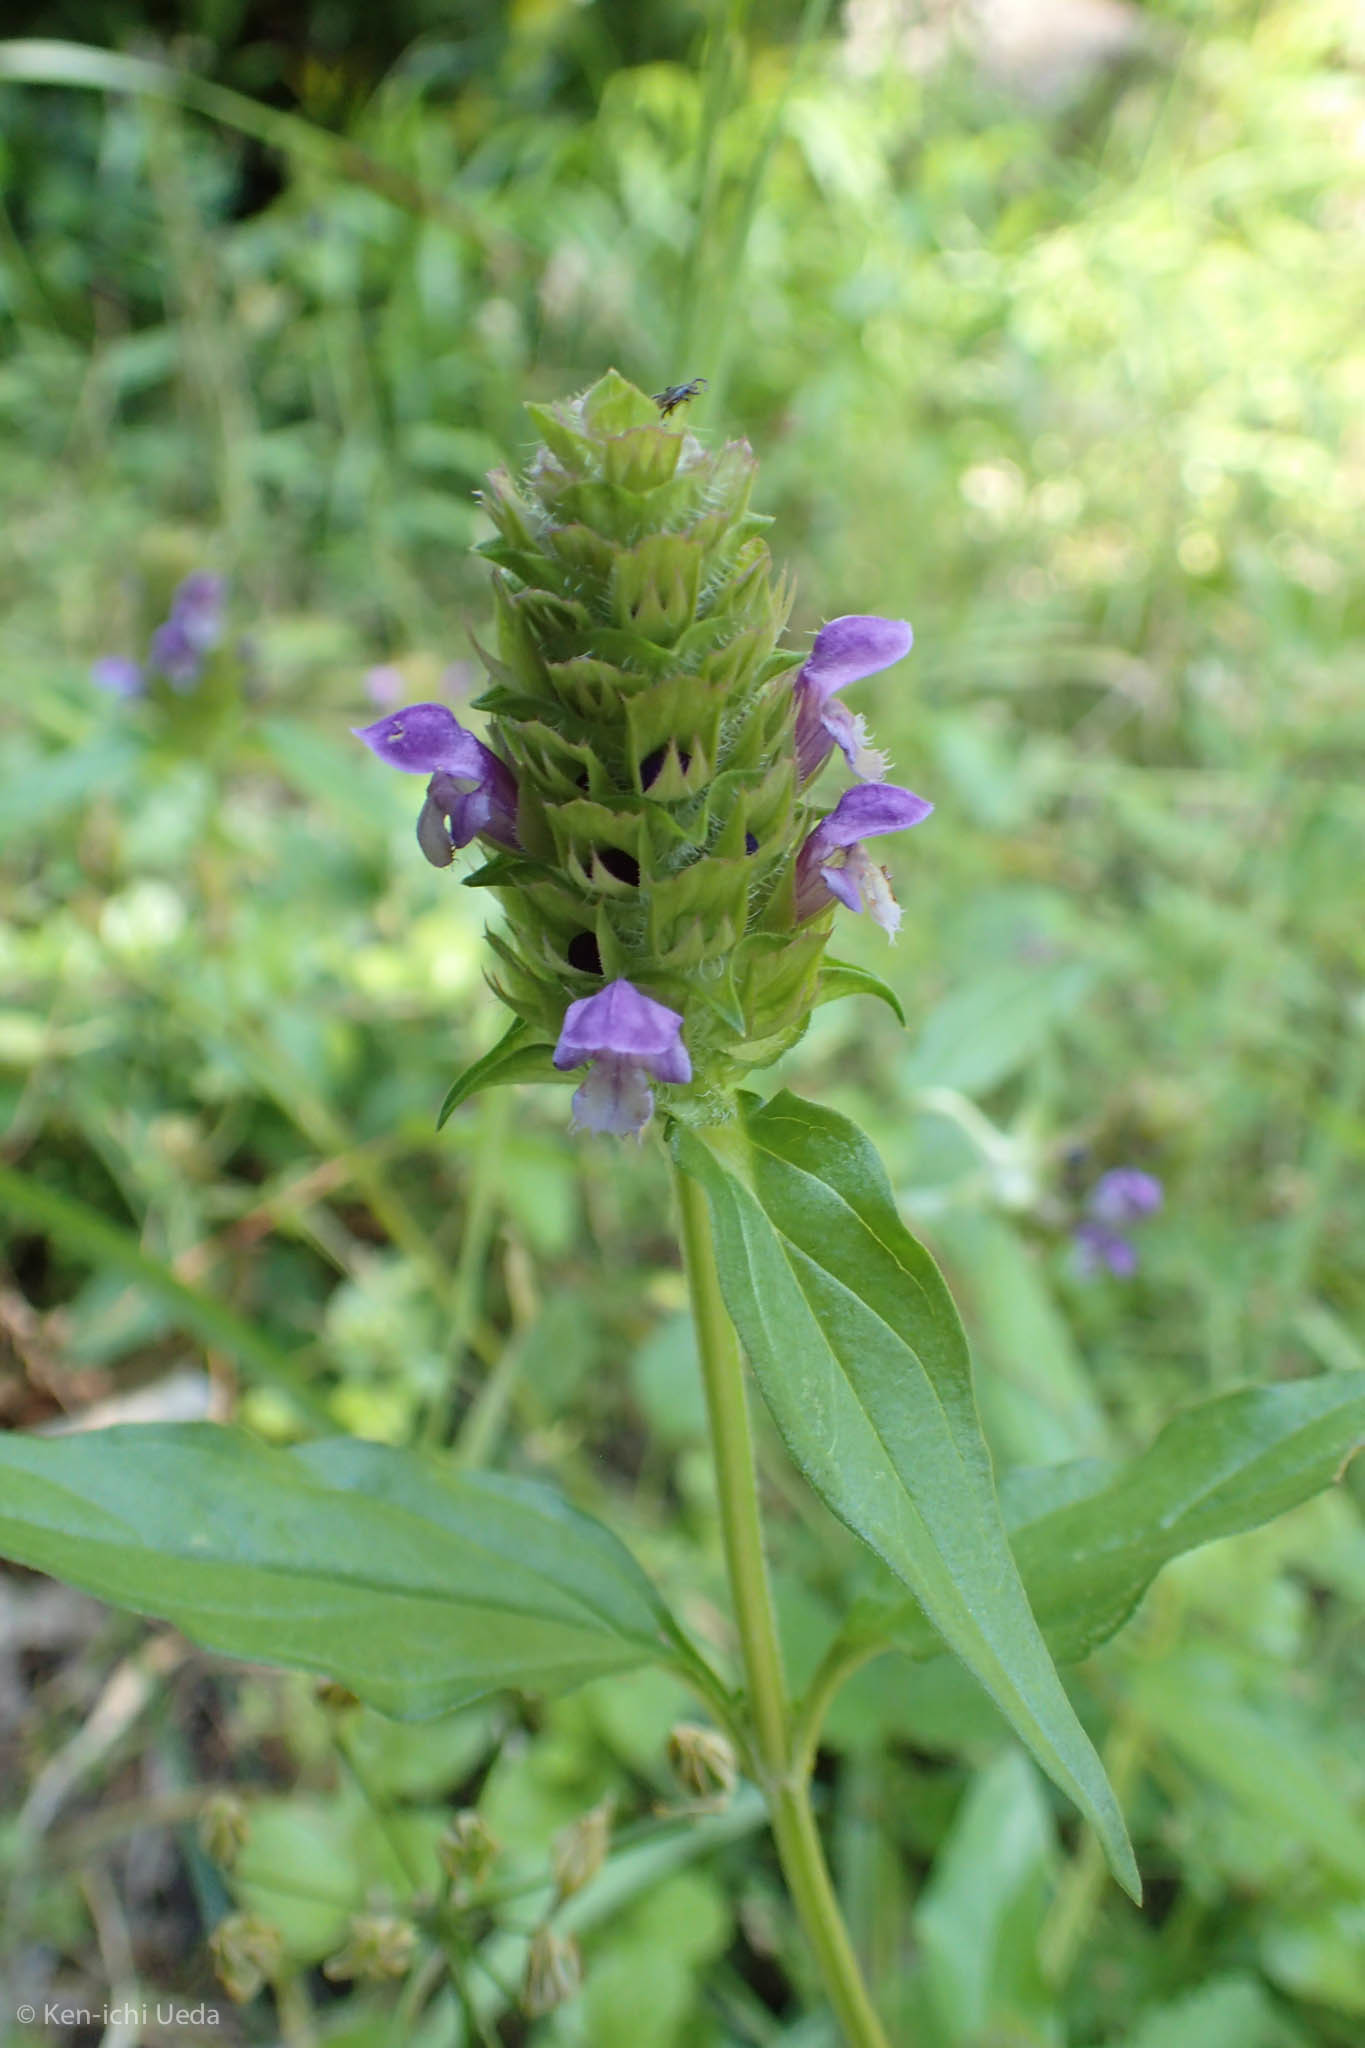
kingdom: Plantae
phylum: Tracheophyta
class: Magnoliopsida
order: Lamiales
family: Lamiaceae
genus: Prunella
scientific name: Prunella vulgaris
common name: Heal-all
